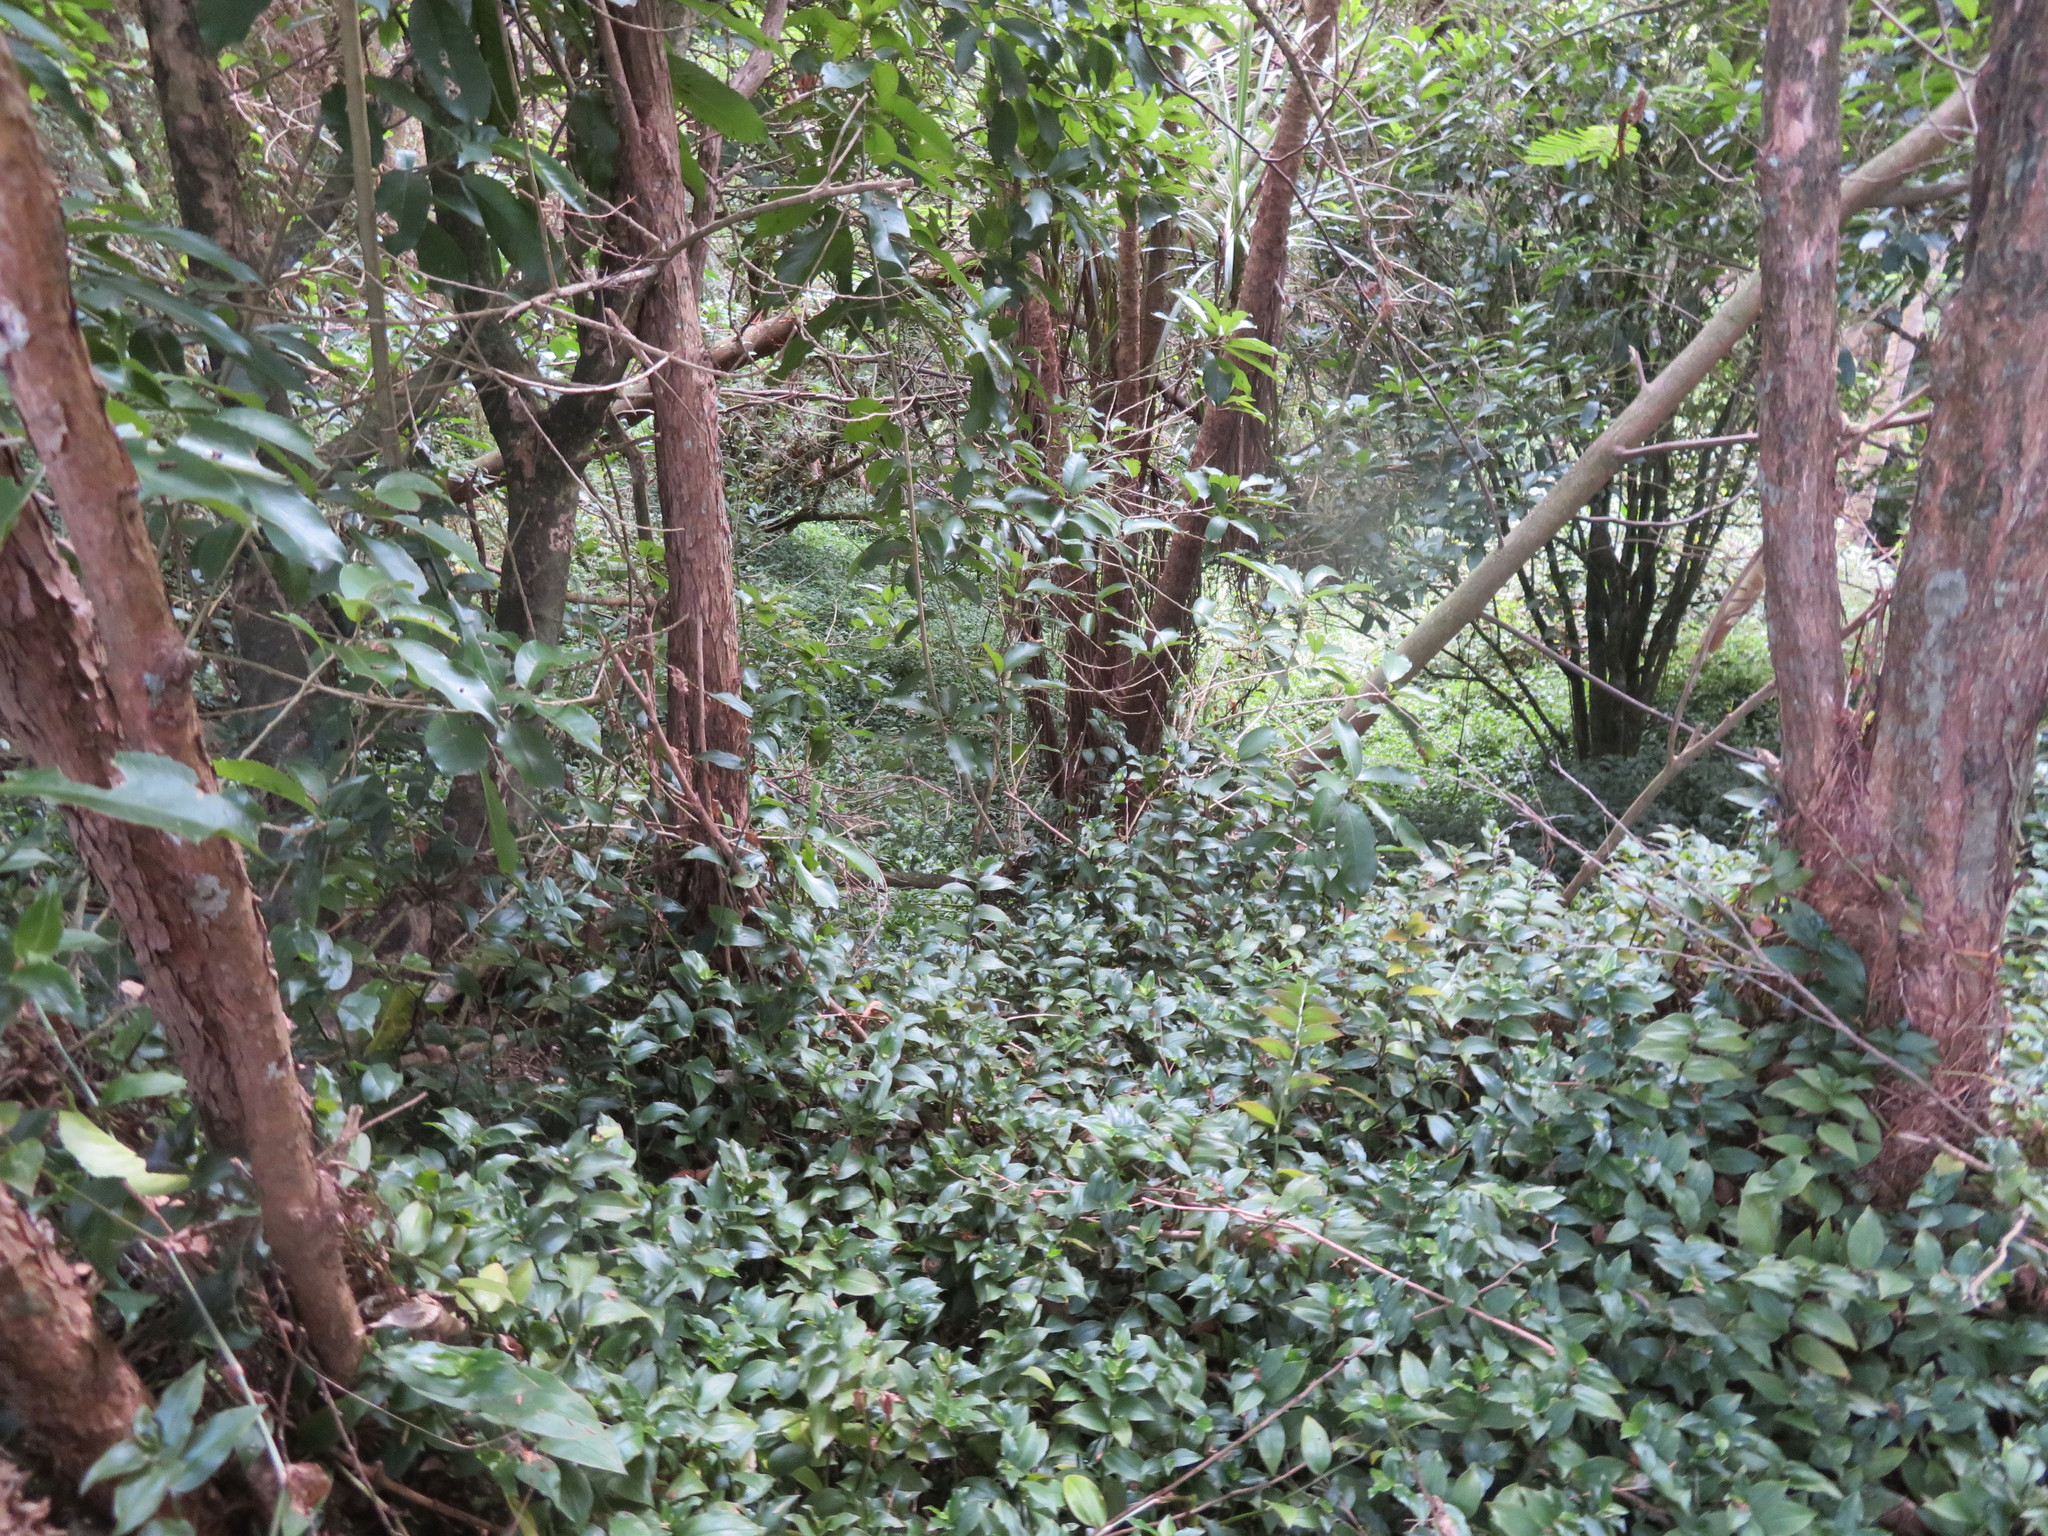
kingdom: Plantae
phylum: Tracheophyta
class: Liliopsida
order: Commelinales
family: Commelinaceae
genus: Tradescantia
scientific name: Tradescantia fluminensis
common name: Wandering-jew
